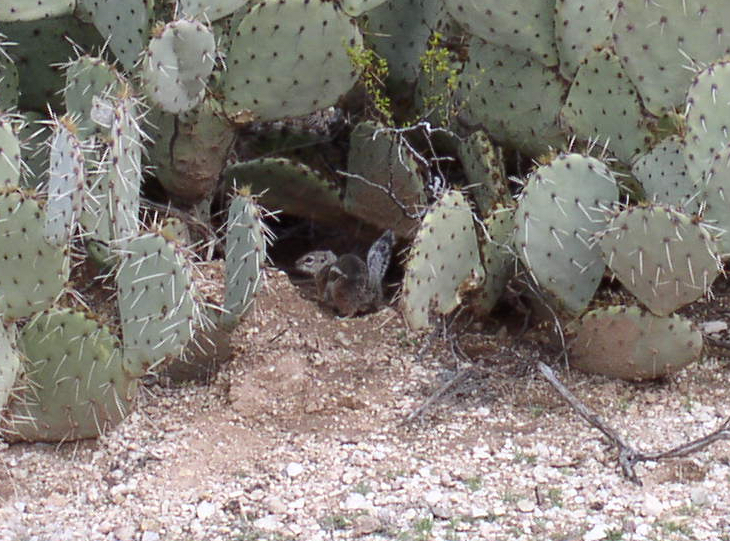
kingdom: Animalia
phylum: Chordata
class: Mammalia
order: Rodentia
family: Sciuridae
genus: Ammospermophilus
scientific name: Ammospermophilus harrisii
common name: Harris's antelope squirrel
